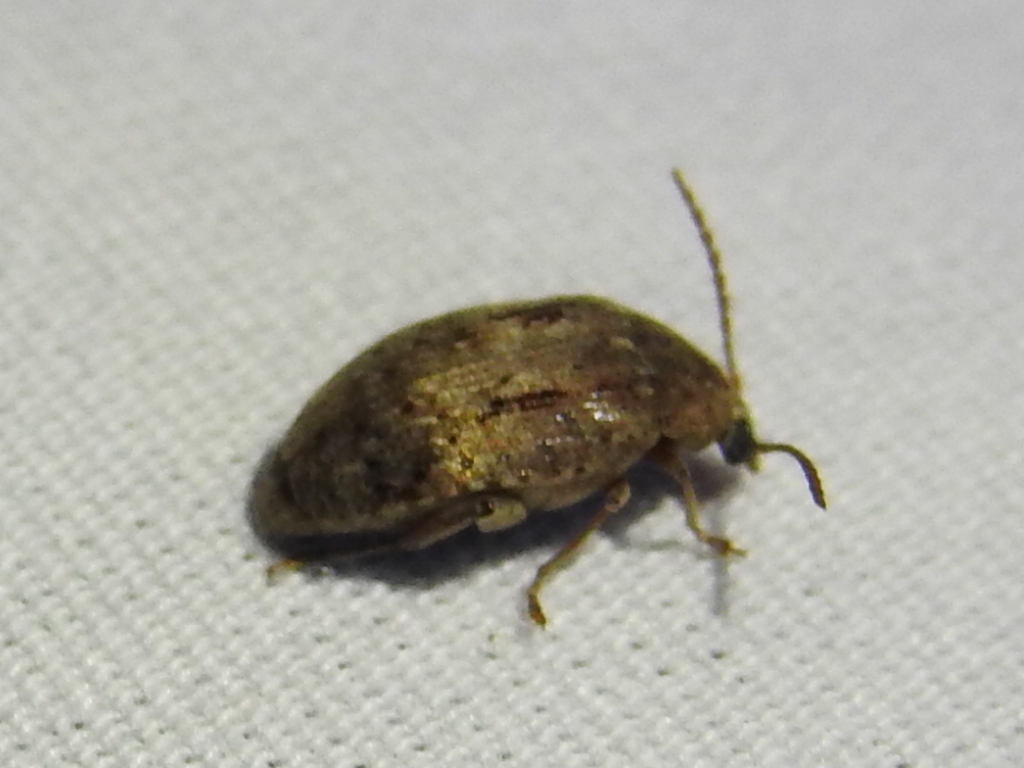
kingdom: Animalia
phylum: Arthropoda
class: Insecta
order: Coleoptera
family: Chrysomelidae
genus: Amblycerus
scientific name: Amblycerus robiniae
